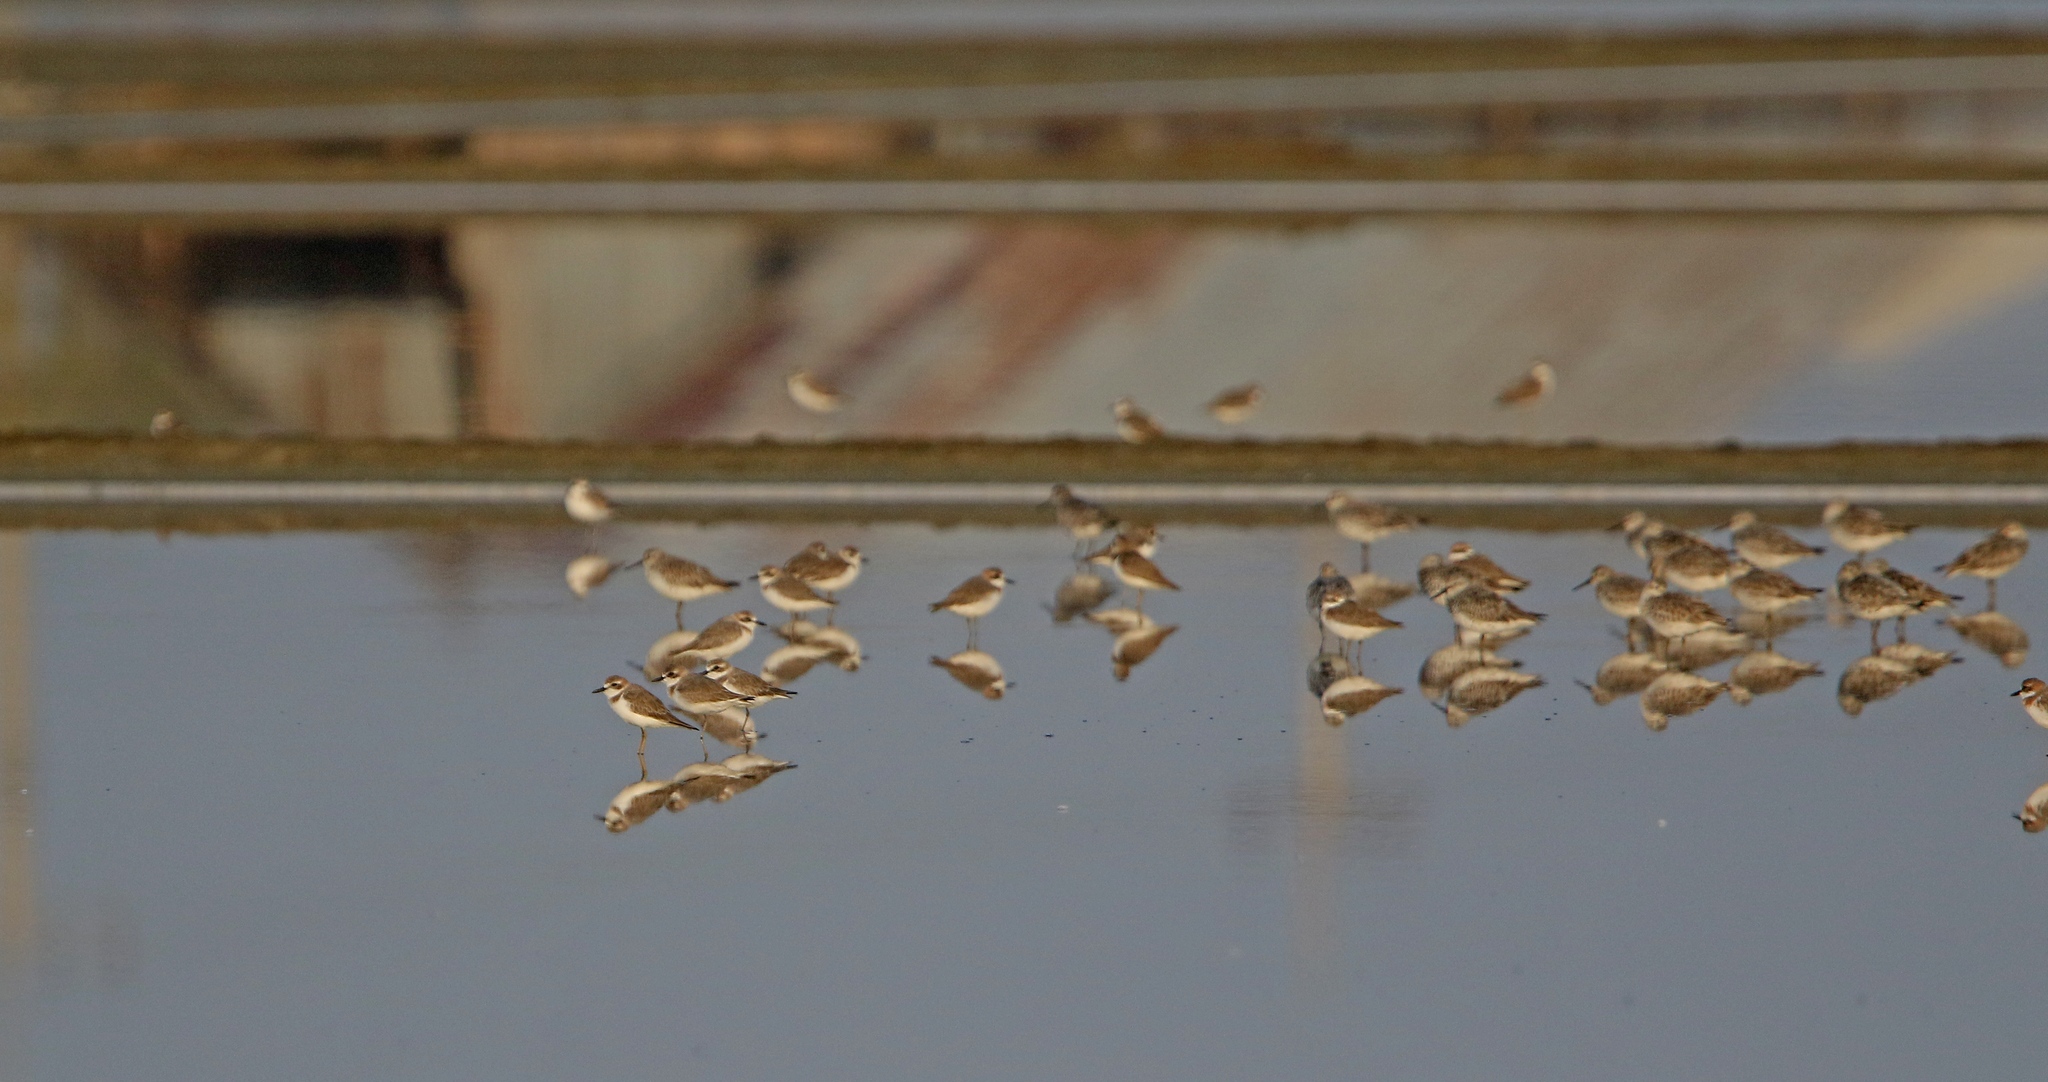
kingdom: Animalia
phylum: Chordata
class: Aves
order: Charadriiformes
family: Scolopacidae
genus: Calidris
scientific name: Calidris tenuirostris
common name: Great knot
